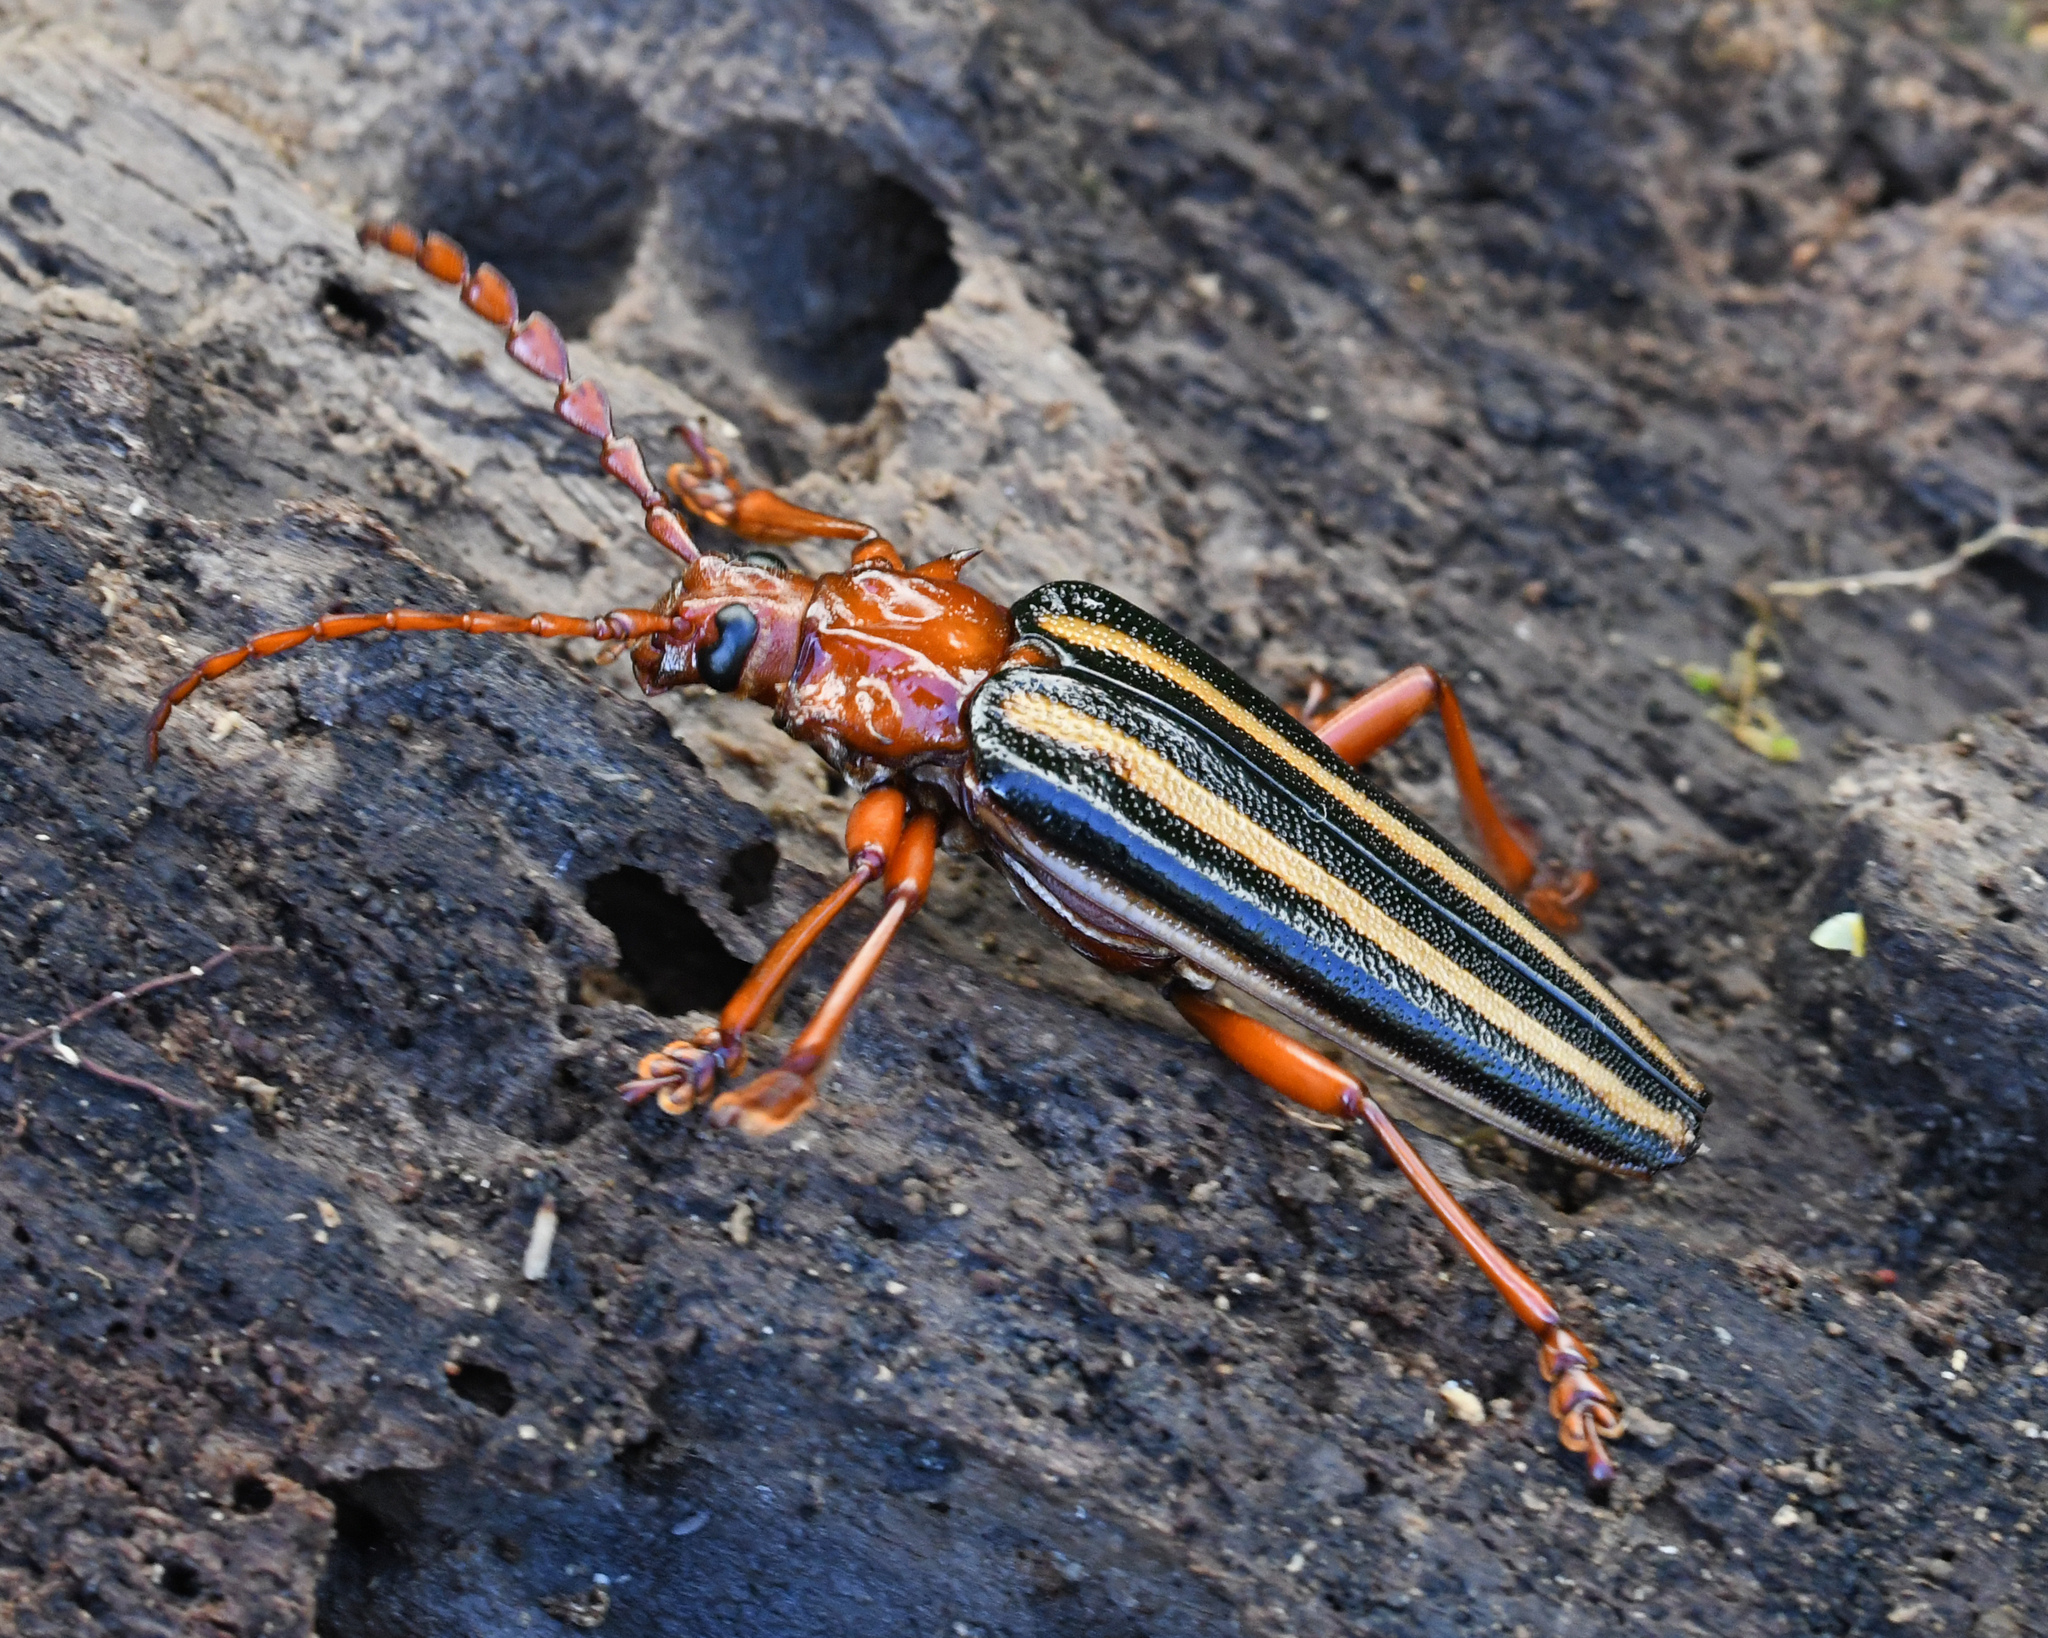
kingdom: Animalia
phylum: Arthropoda
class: Insecta
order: Coleoptera
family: Cerambycidae
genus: Derancistrus
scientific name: Derancistrus hovorei
